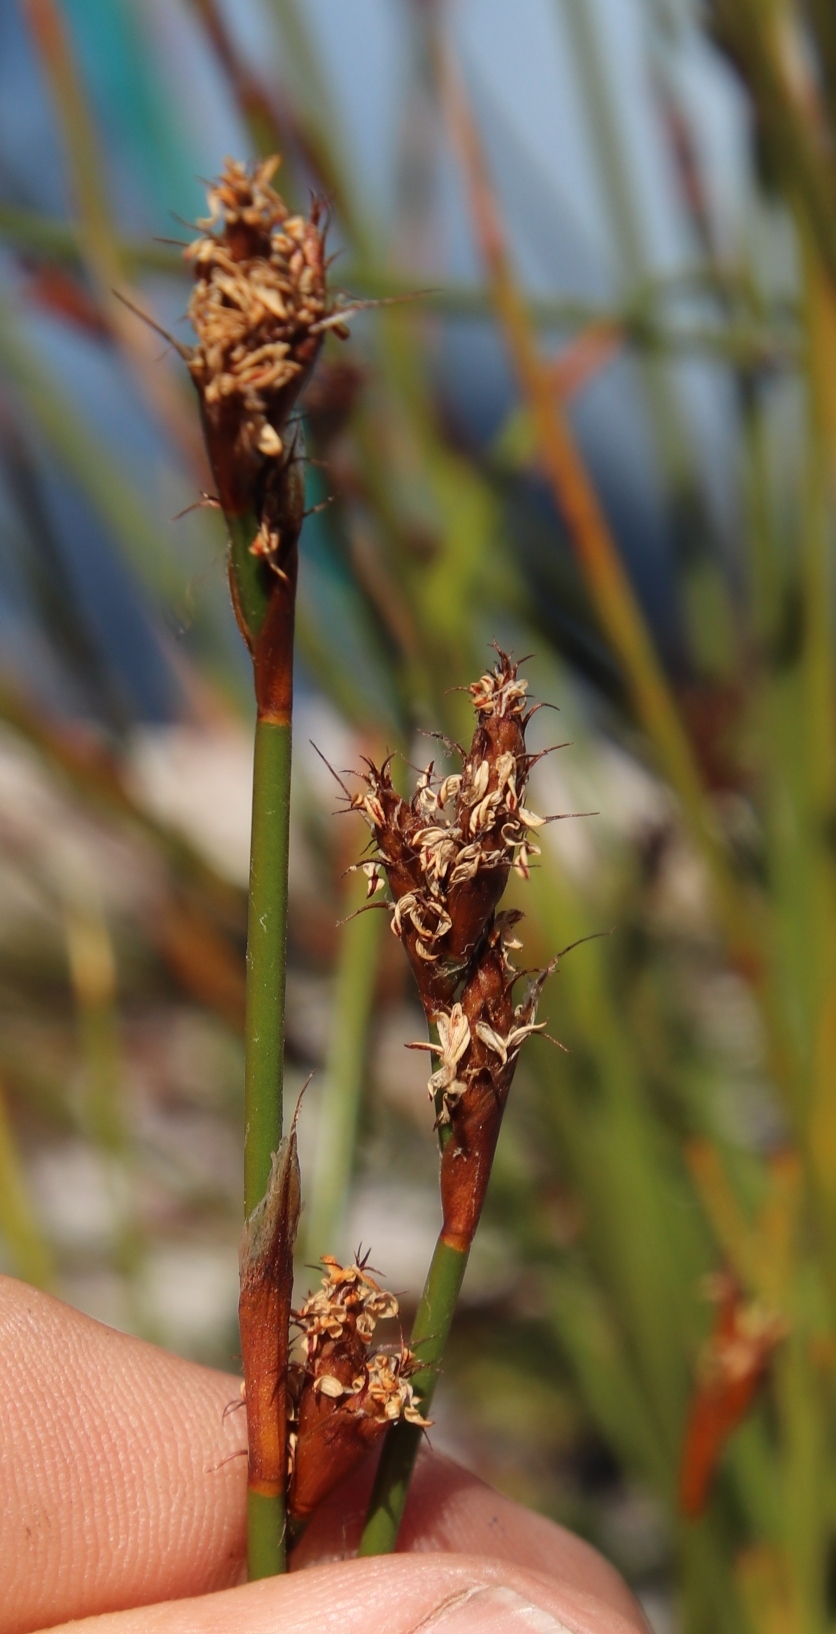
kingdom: Plantae
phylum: Tracheophyta
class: Liliopsida
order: Poales
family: Restionaceae
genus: Restio
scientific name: Restio capensis
